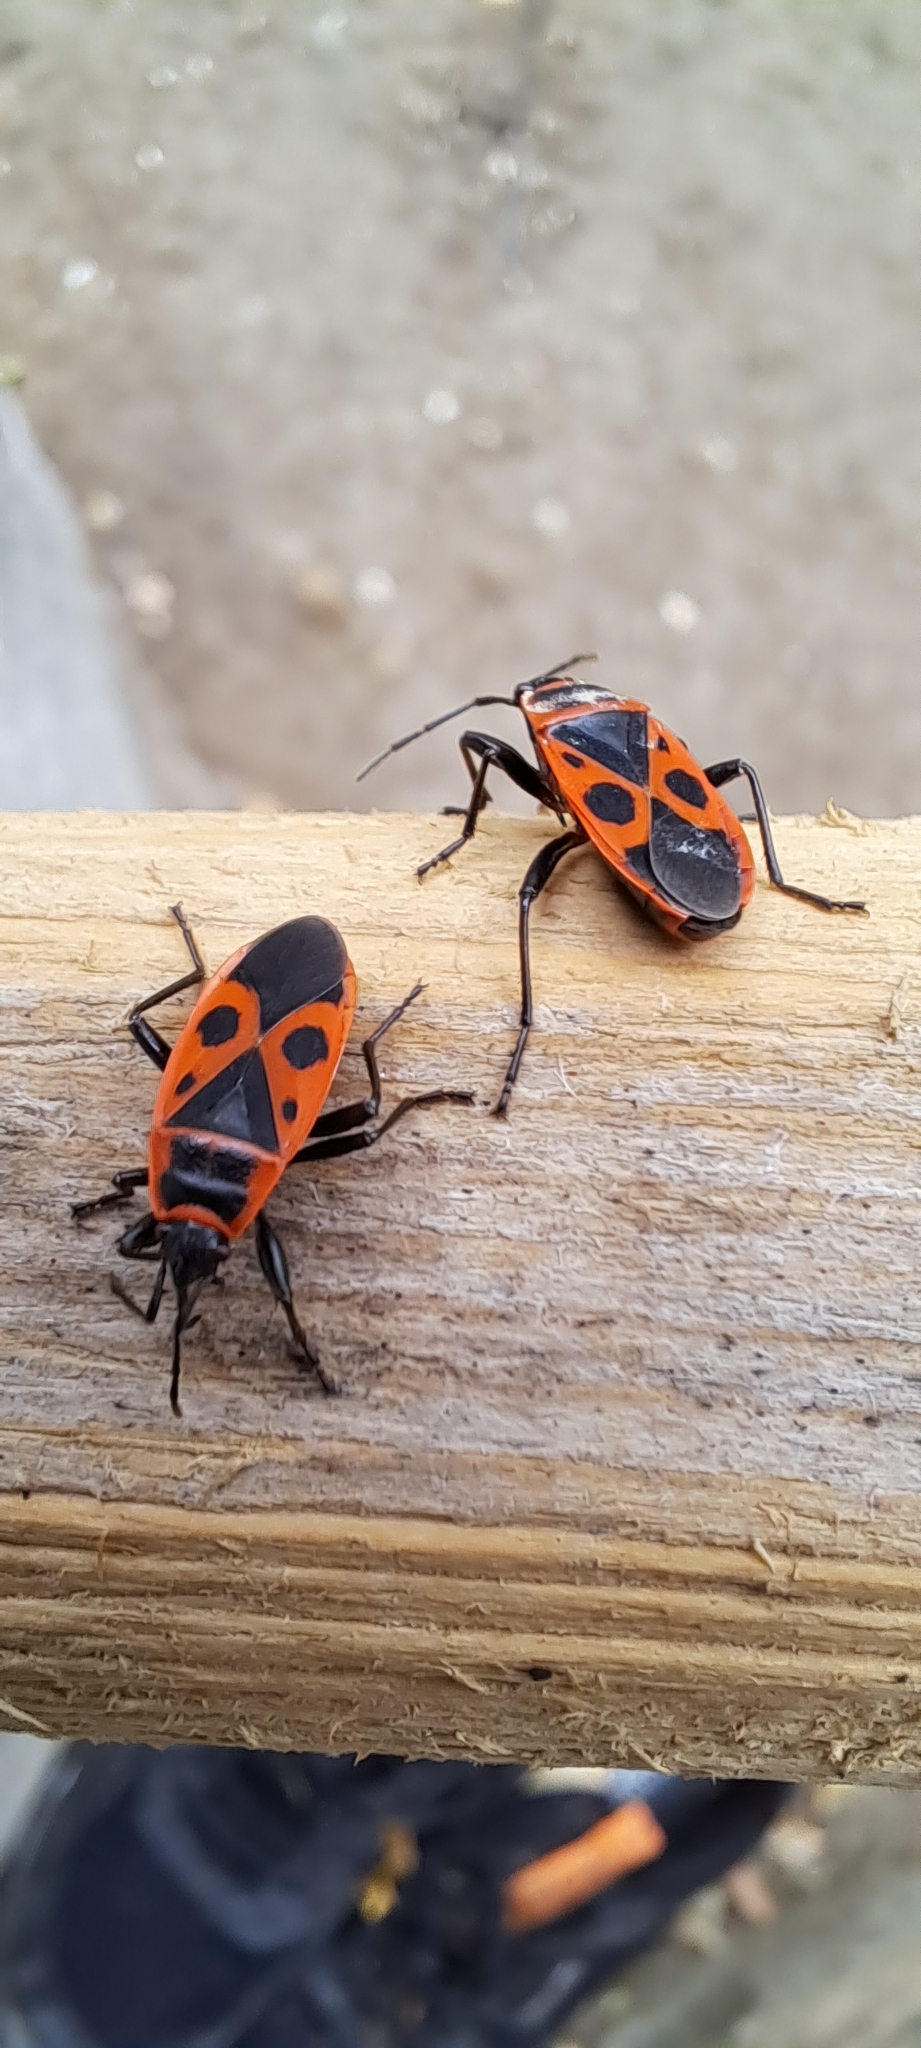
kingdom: Animalia
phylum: Arthropoda
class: Insecta
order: Hemiptera
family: Pyrrhocoridae
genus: Pyrrhocoris
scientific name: Pyrrhocoris apterus
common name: Firebug
